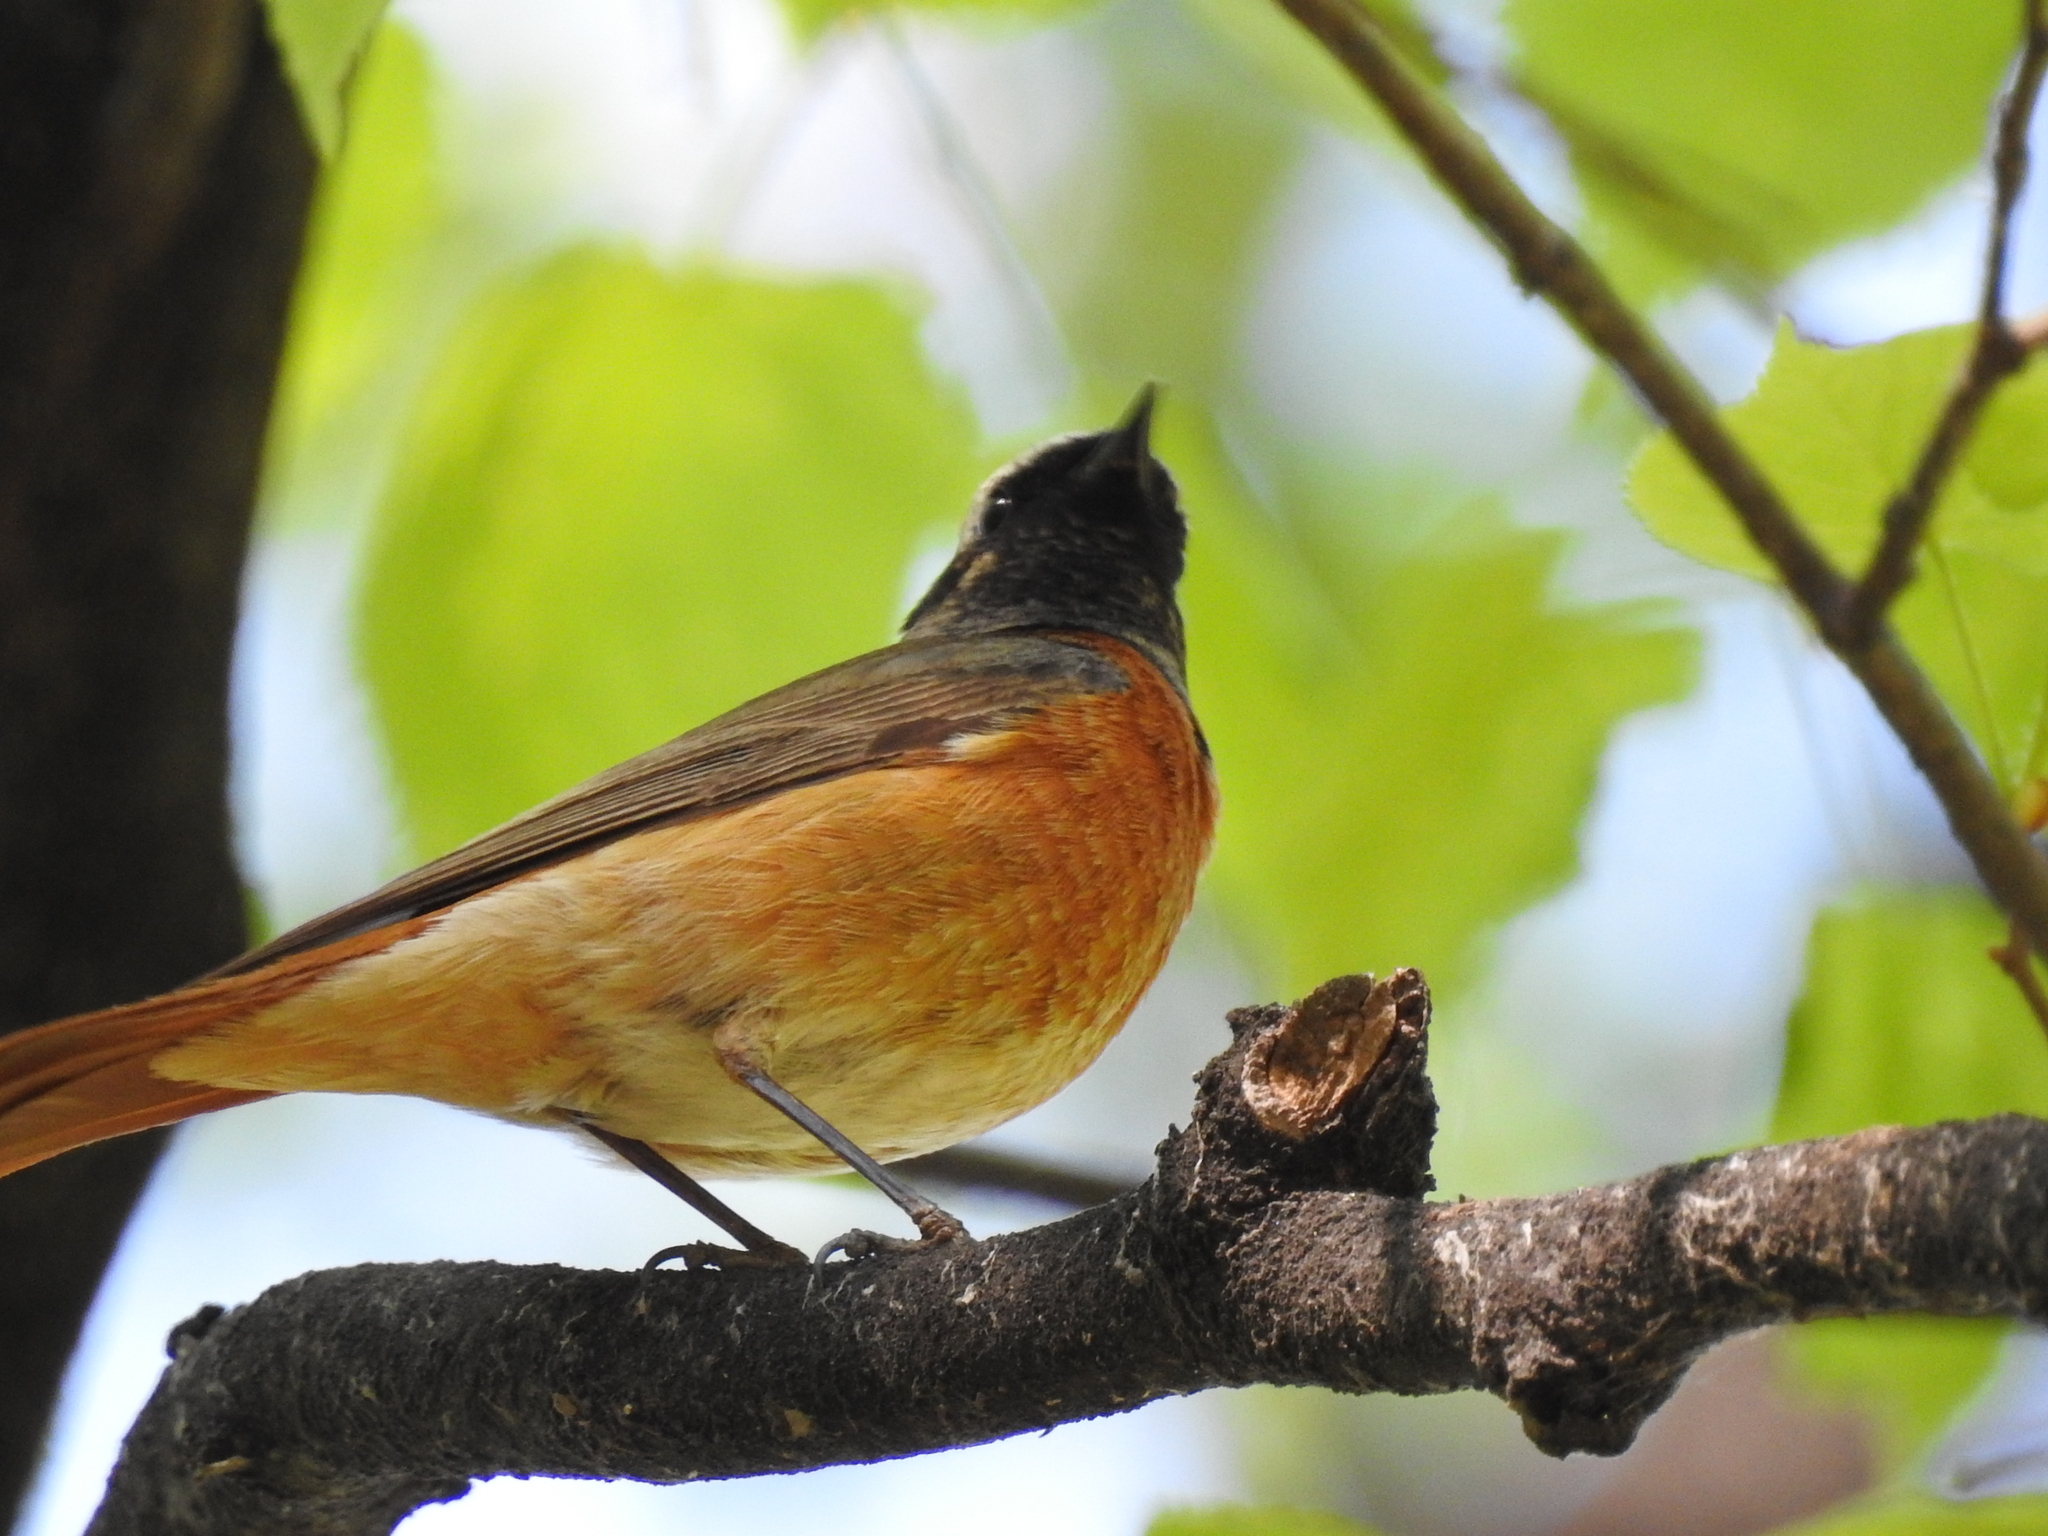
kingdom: Animalia
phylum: Chordata
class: Aves
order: Passeriformes
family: Muscicapidae
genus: Phoenicurus
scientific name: Phoenicurus phoenicurus
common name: Common redstart
